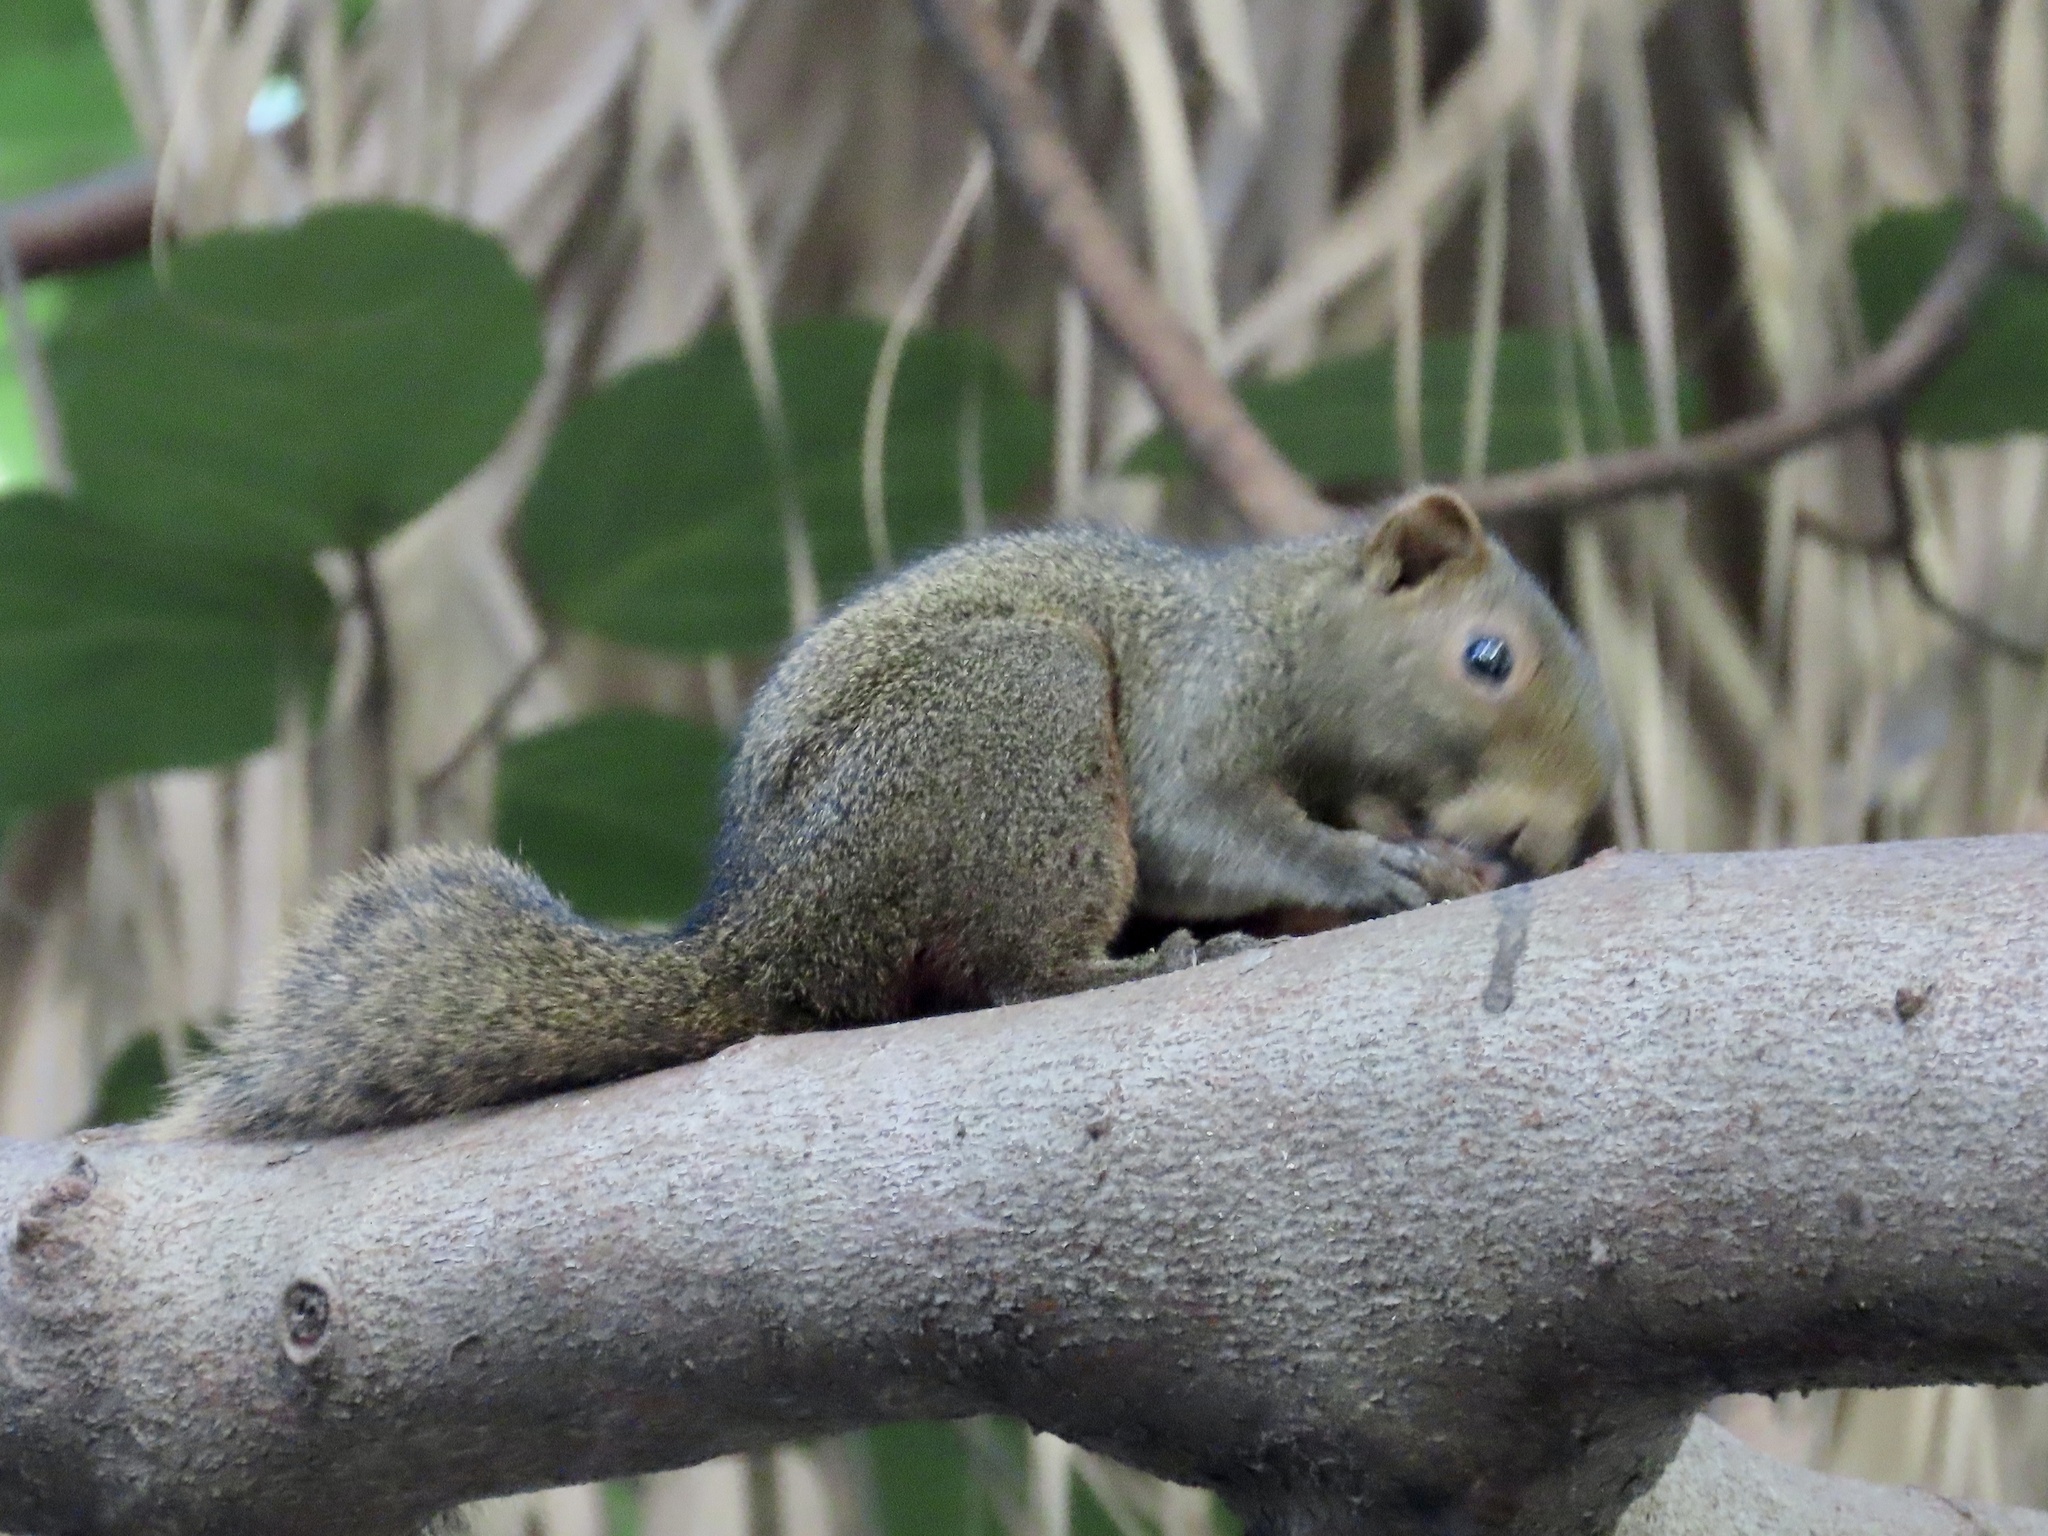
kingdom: Animalia
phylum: Chordata
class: Mammalia
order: Rodentia
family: Sciuridae
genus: Callosciurus
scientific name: Callosciurus erythraeus
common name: Pallas's squirrel
